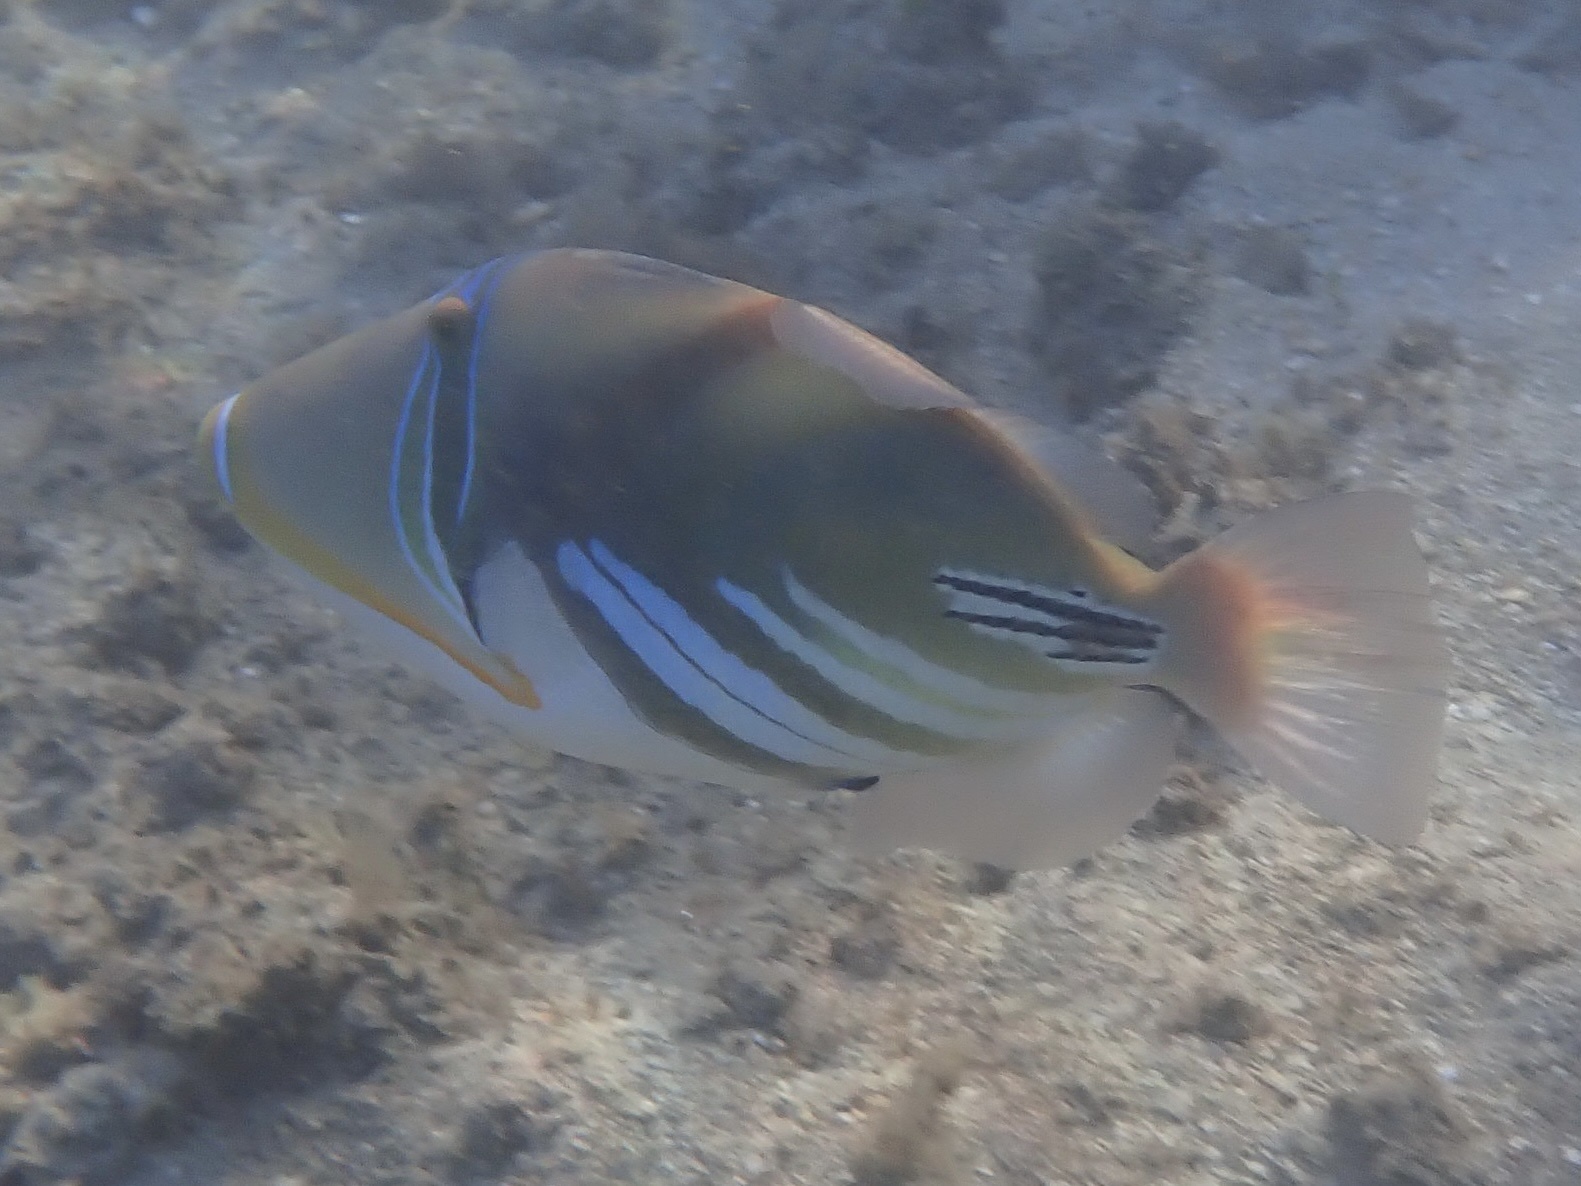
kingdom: Animalia
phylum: Chordata
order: Tetraodontiformes
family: Balistidae
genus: Rhinecanthus
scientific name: Rhinecanthus aculeatus
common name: White-banded triggerfish
